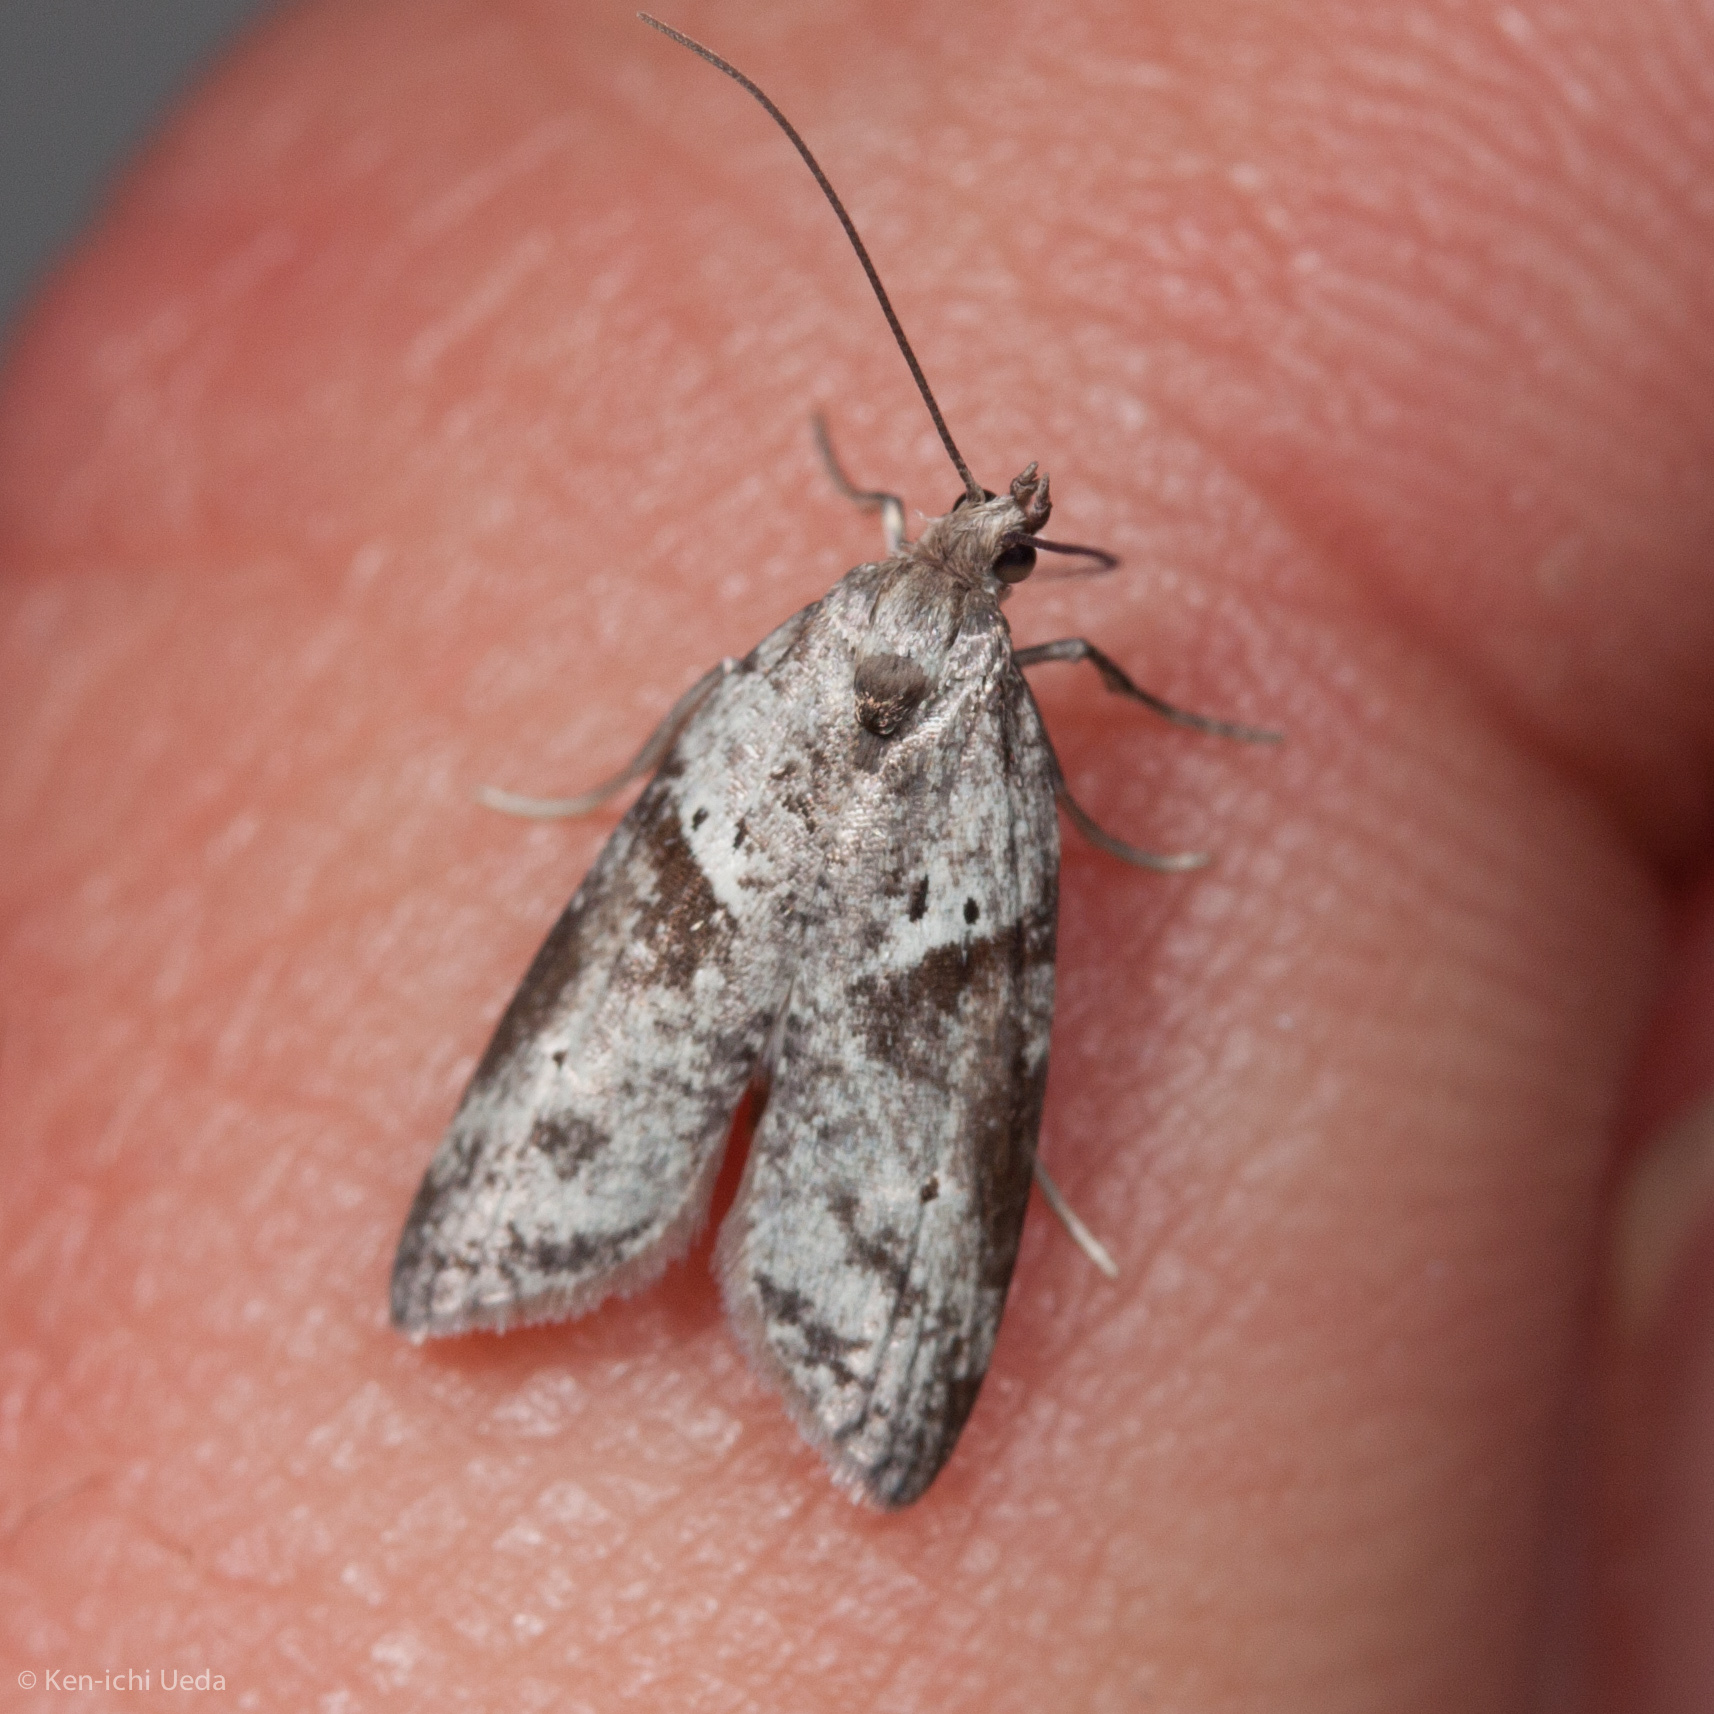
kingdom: Animalia
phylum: Arthropoda
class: Insecta
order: Lepidoptera
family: Copromorphidae
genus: Lotisma
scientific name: Lotisma trigonana
